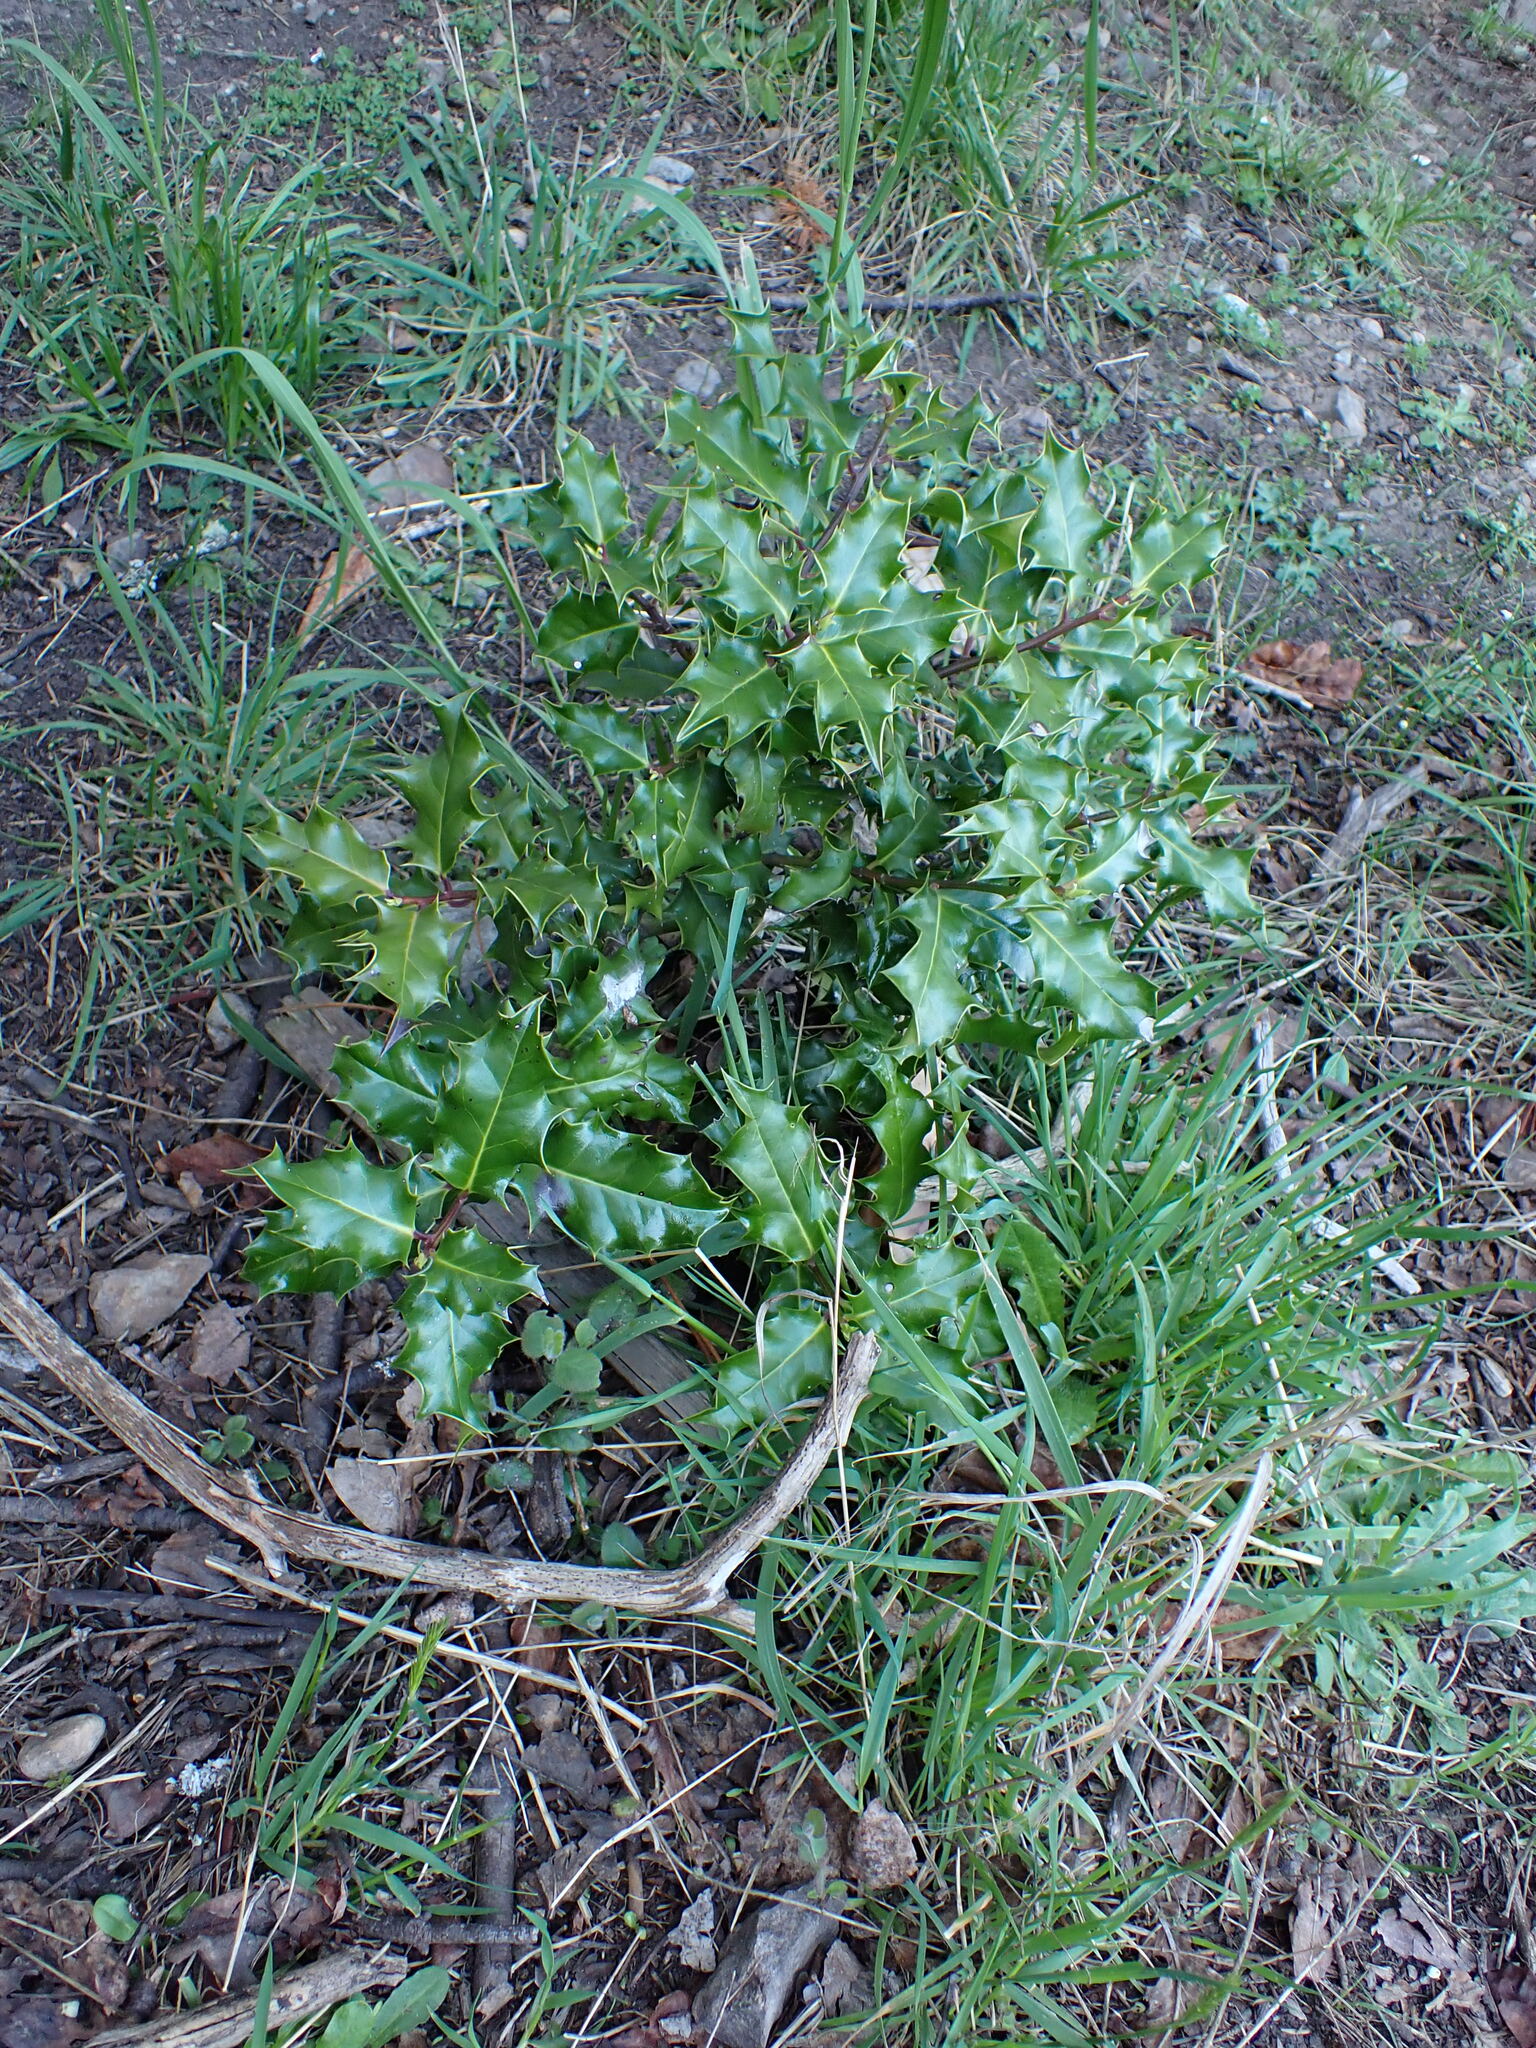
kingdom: Plantae
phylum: Tracheophyta
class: Magnoliopsida
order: Aquifoliales
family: Aquifoliaceae
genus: Ilex
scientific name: Ilex aquifolium
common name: English holly
